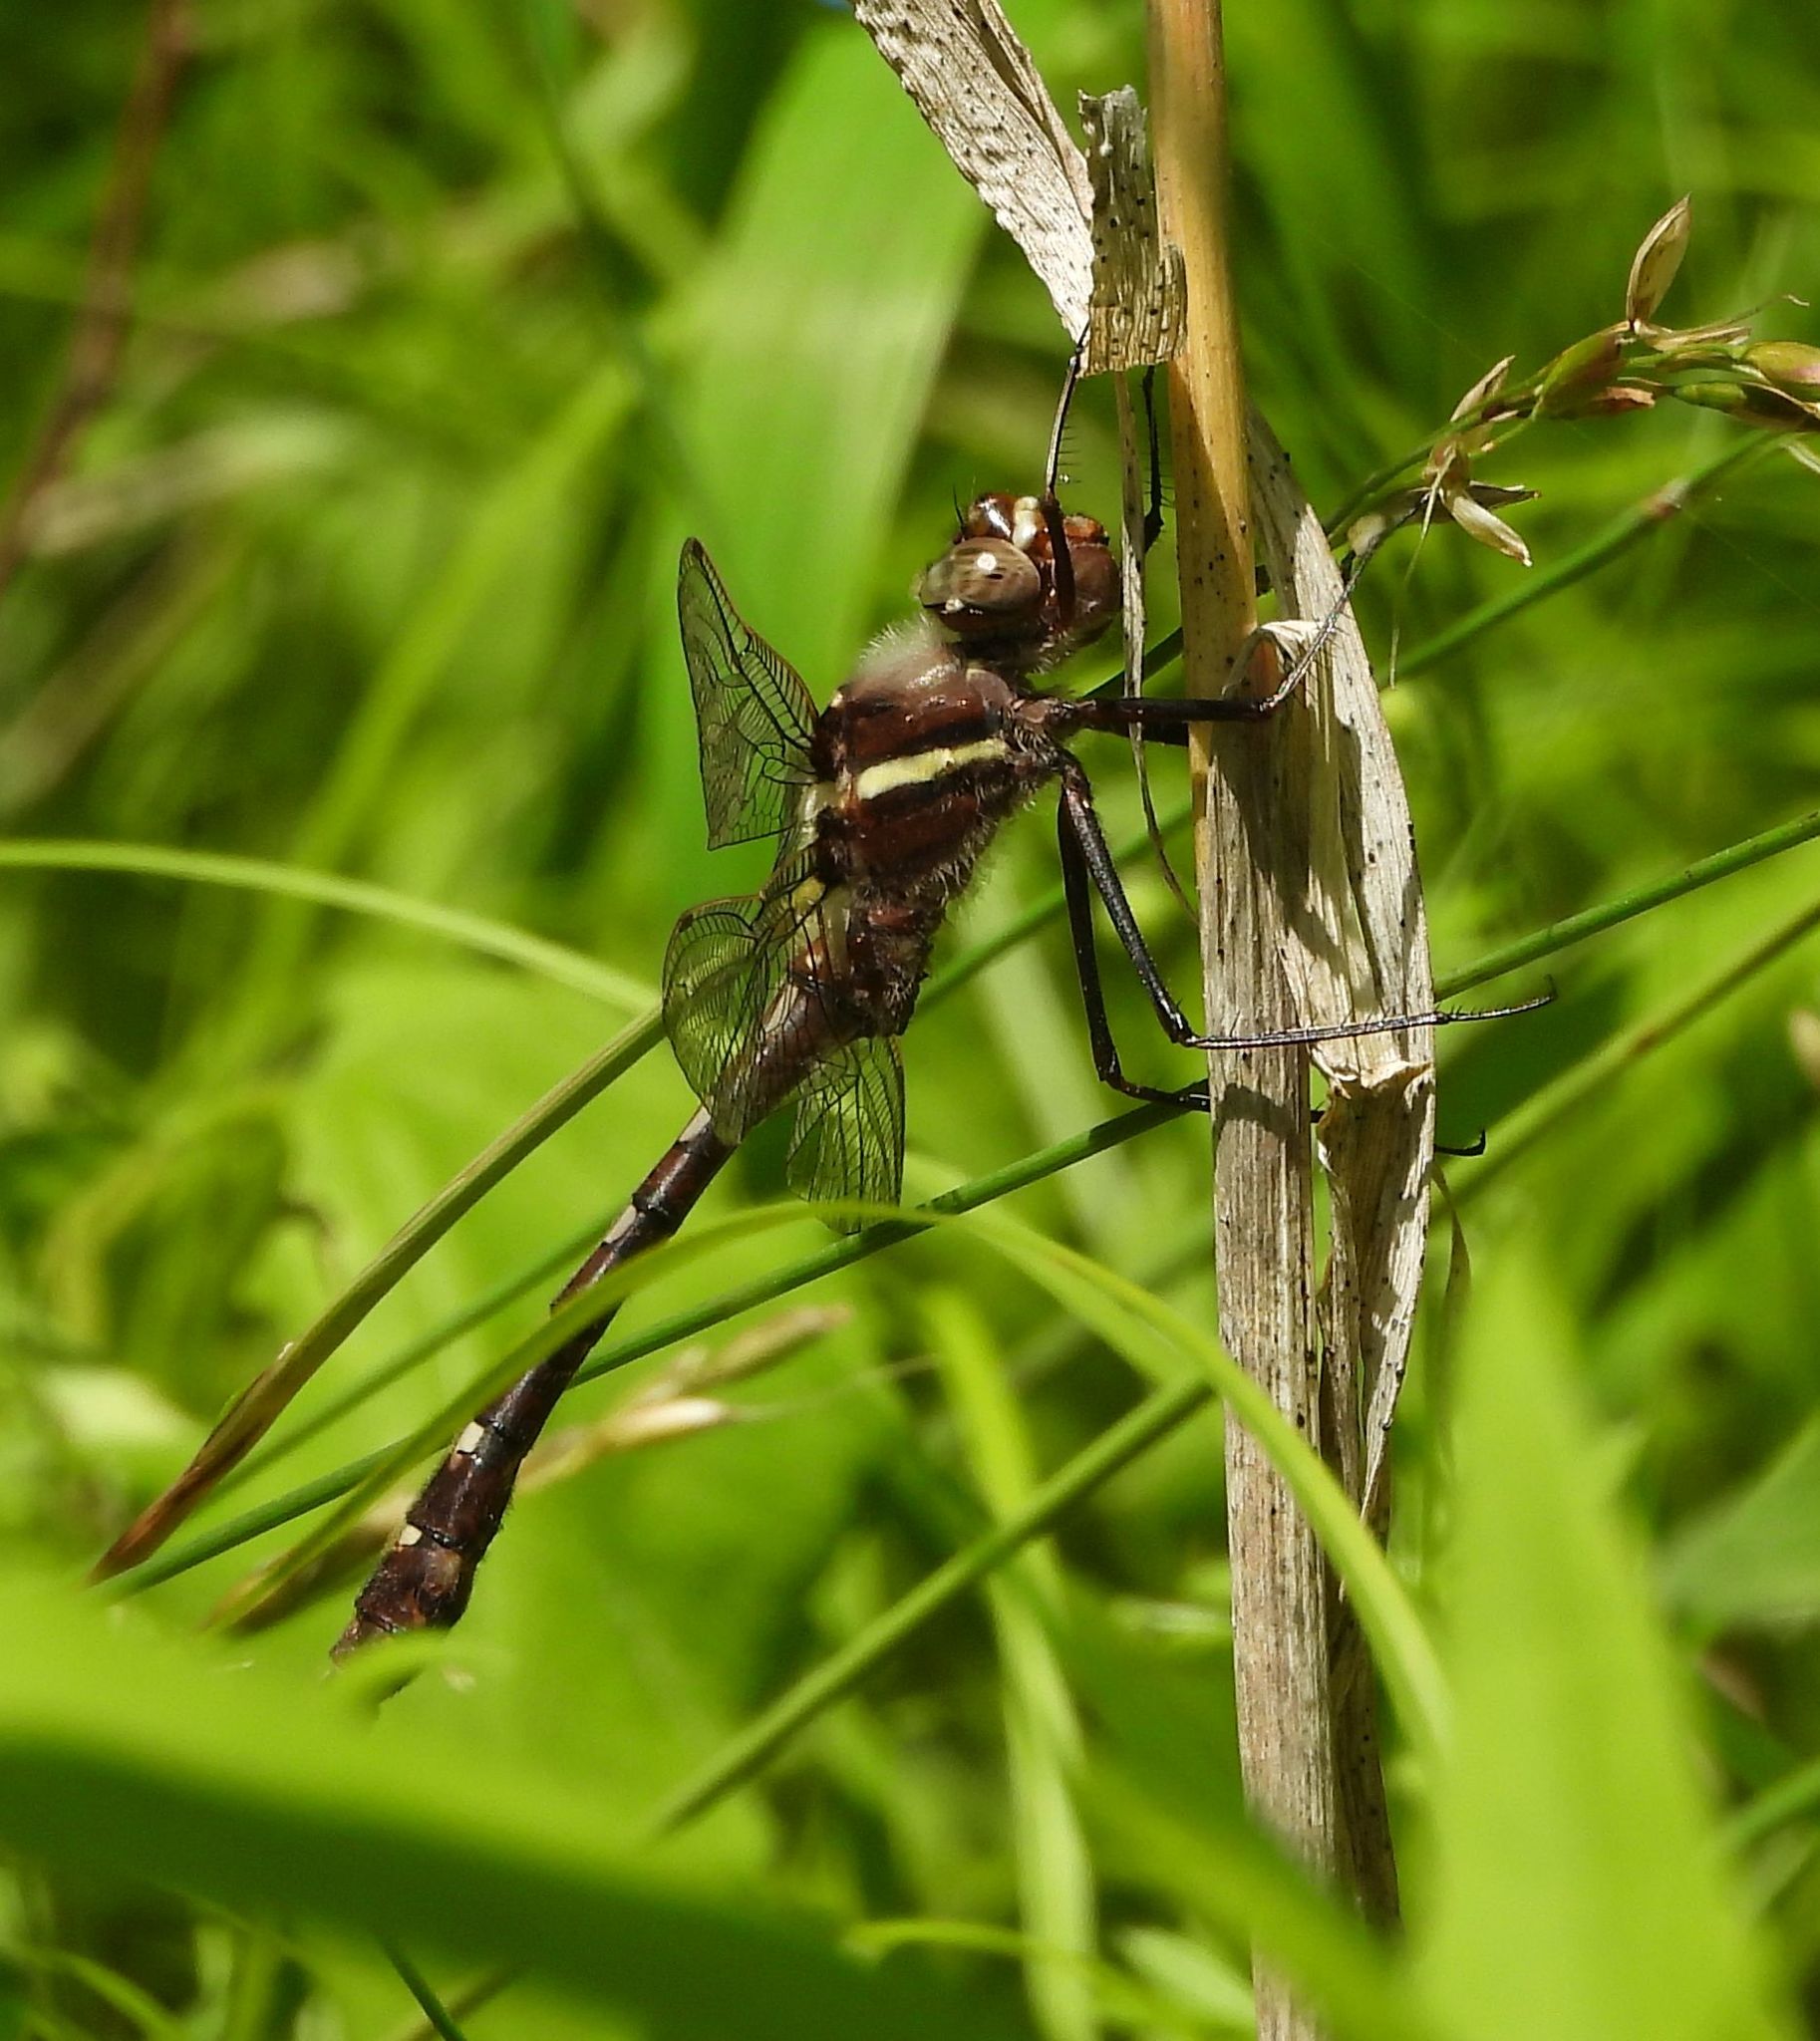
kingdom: Animalia
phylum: Arthropoda
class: Insecta
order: Odonata
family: Macromiidae
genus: Didymops
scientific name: Didymops transversa
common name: Stream cruiser
